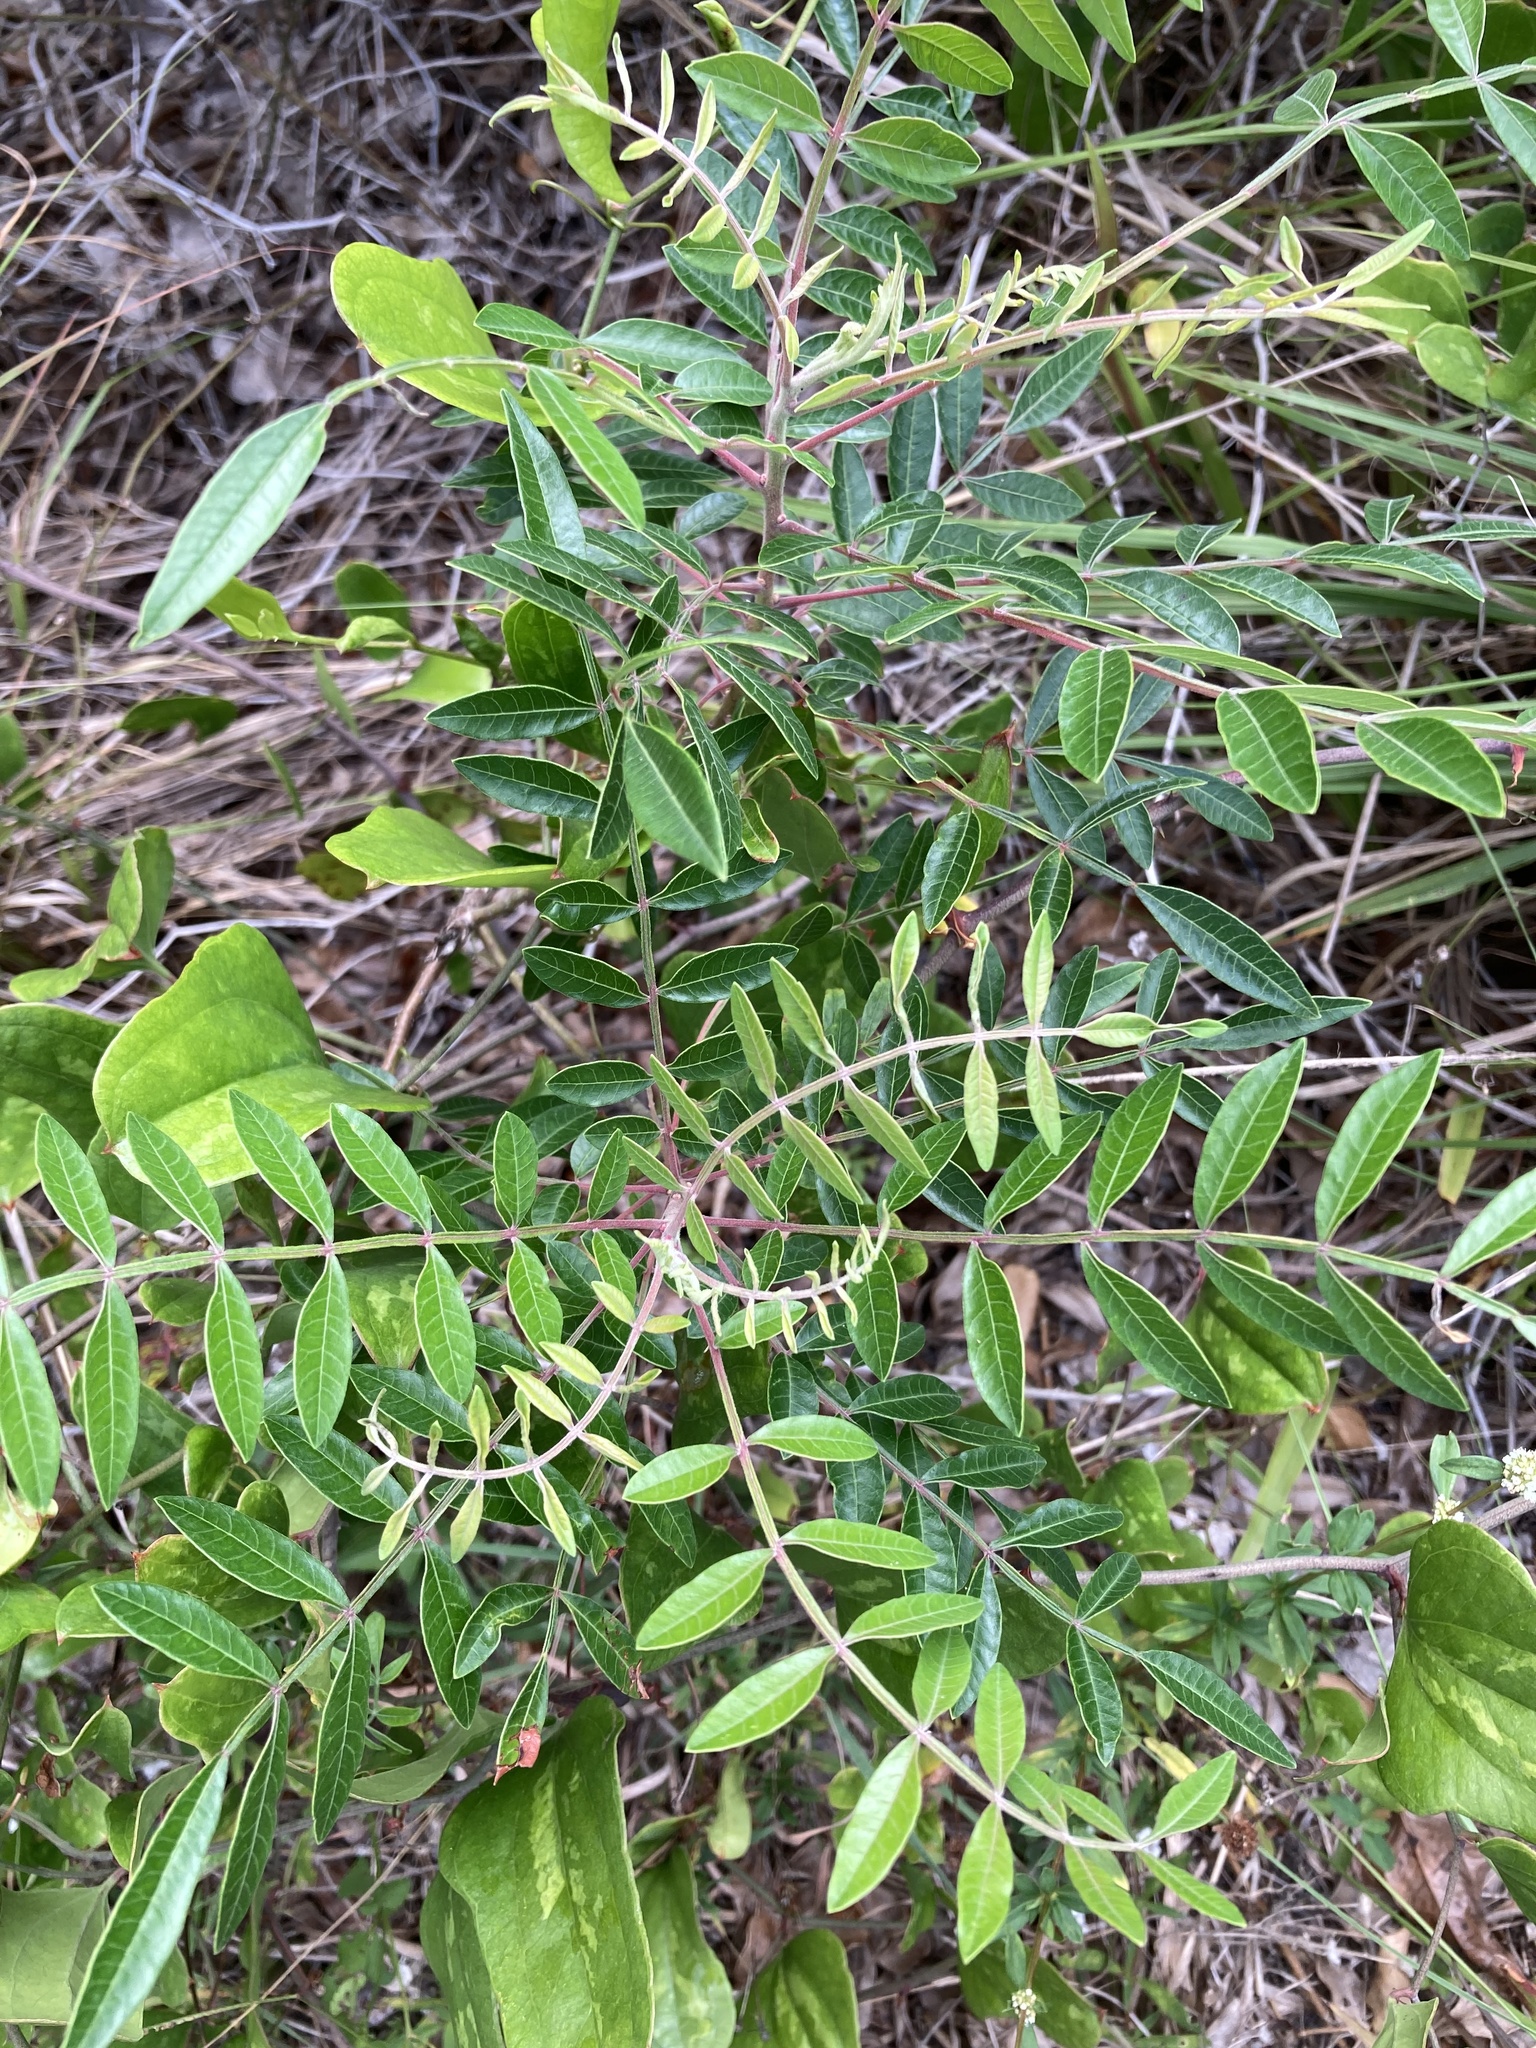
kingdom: Plantae
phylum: Tracheophyta
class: Magnoliopsida
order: Sapindales
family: Anacardiaceae
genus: Rhus
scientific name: Rhus copallina
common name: Shining sumac
